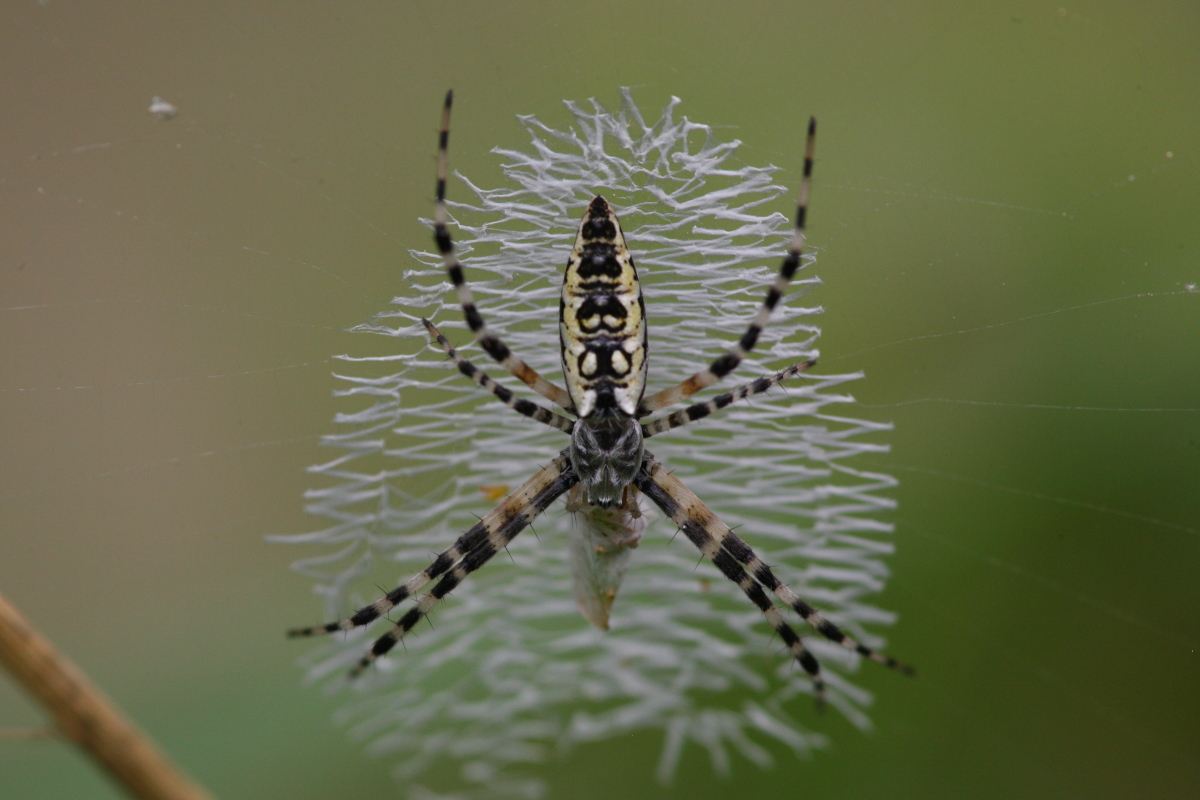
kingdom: Animalia
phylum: Arthropoda
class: Arachnida
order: Araneae
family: Araneidae
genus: Argiope
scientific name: Argiope aurantia
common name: Orb weavers
